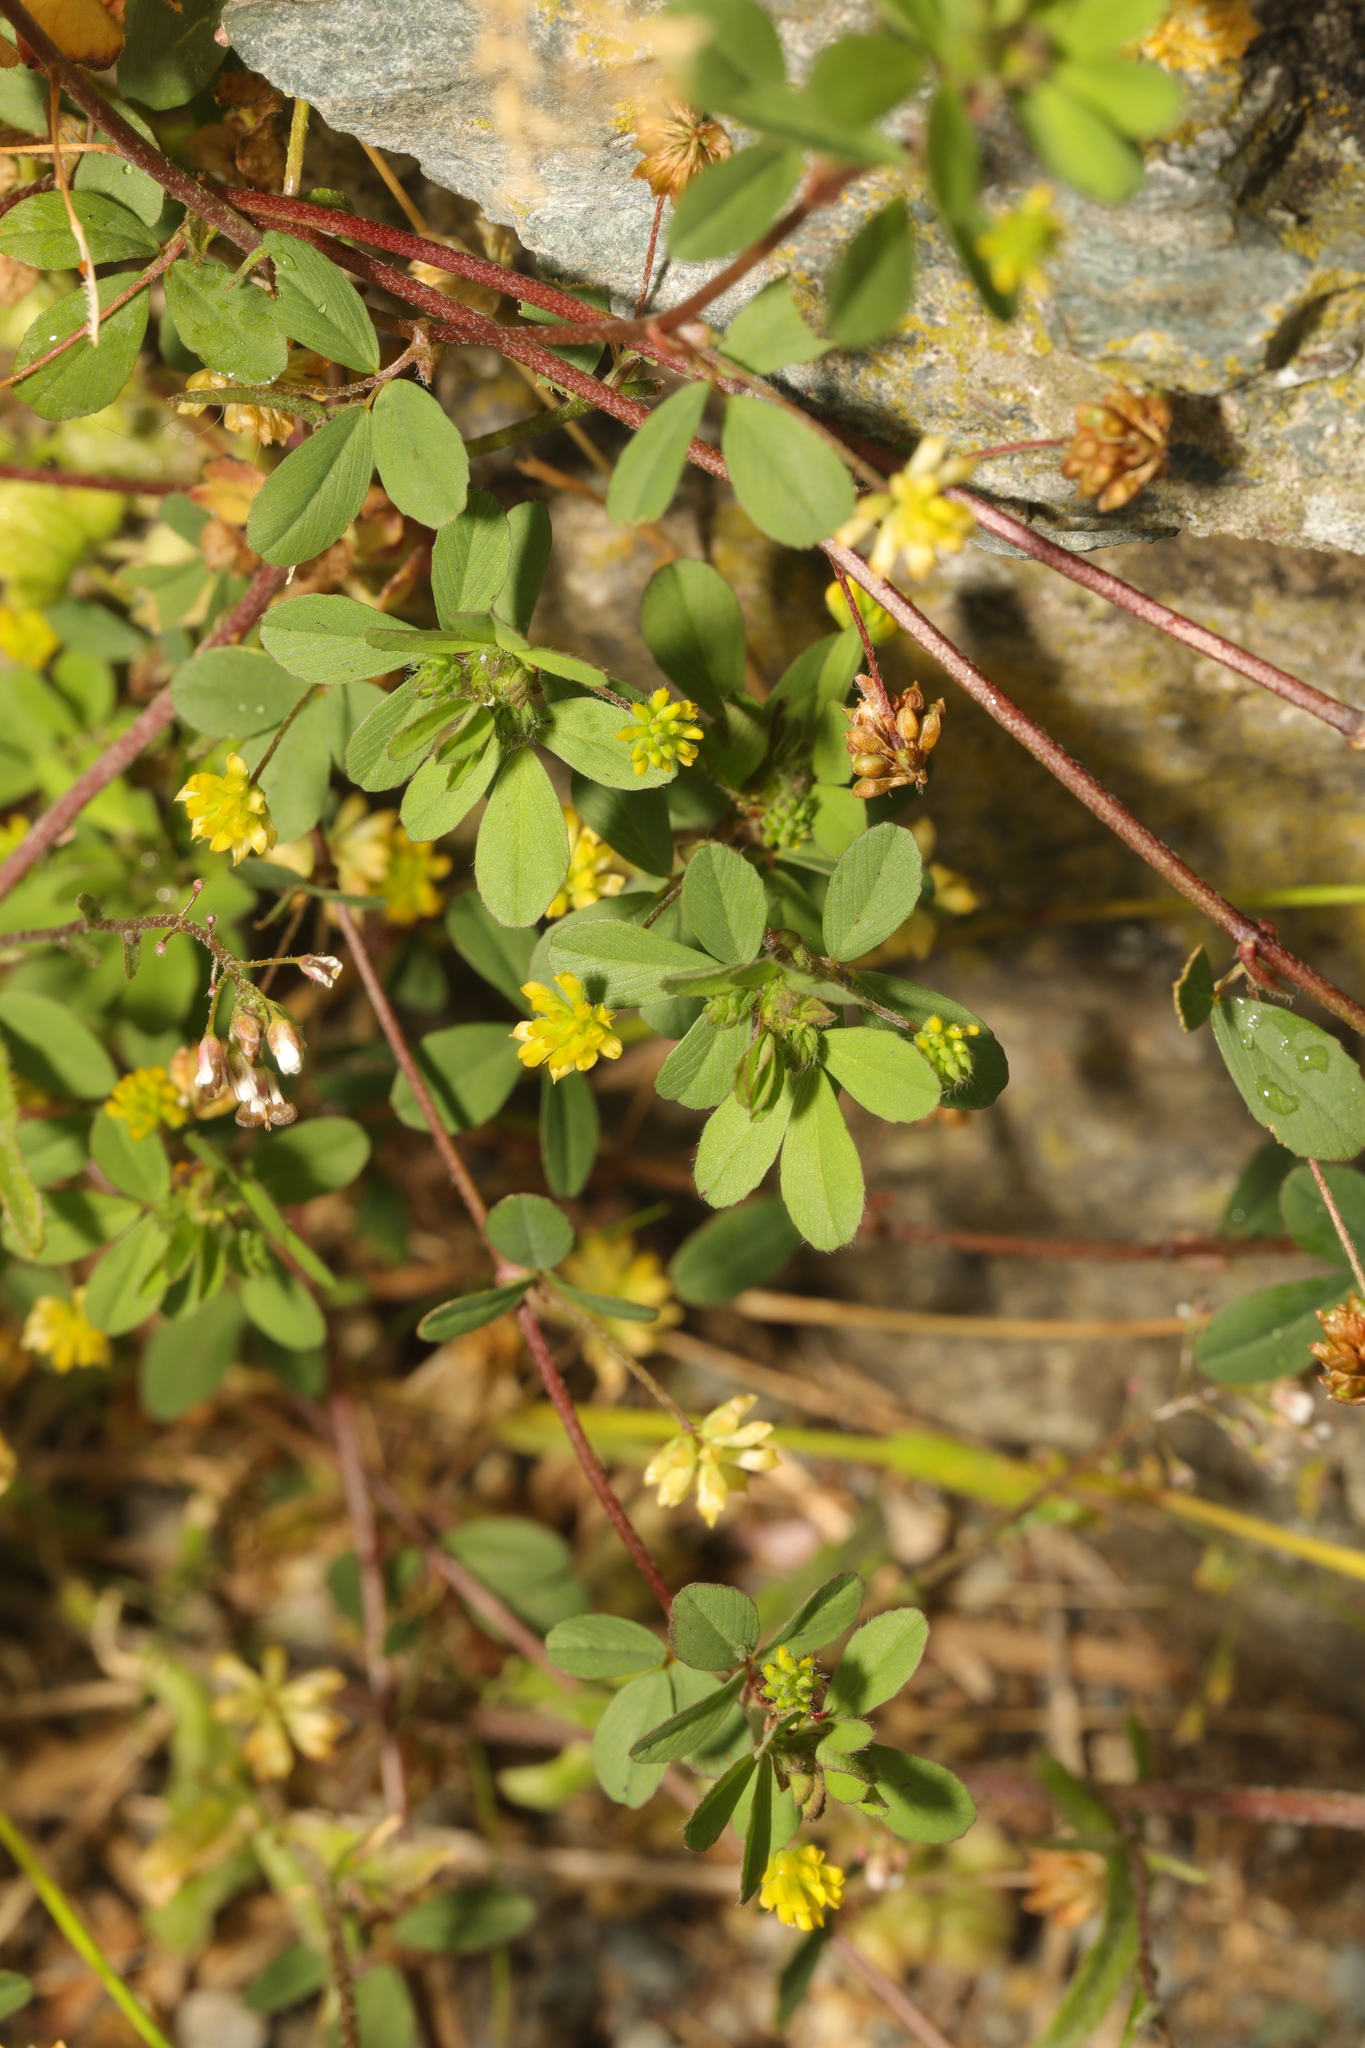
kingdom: Plantae
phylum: Tracheophyta
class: Magnoliopsida
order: Fabales
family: Fabaceae
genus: Trifolium
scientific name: Trifolium dubium
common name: Suckling clover
